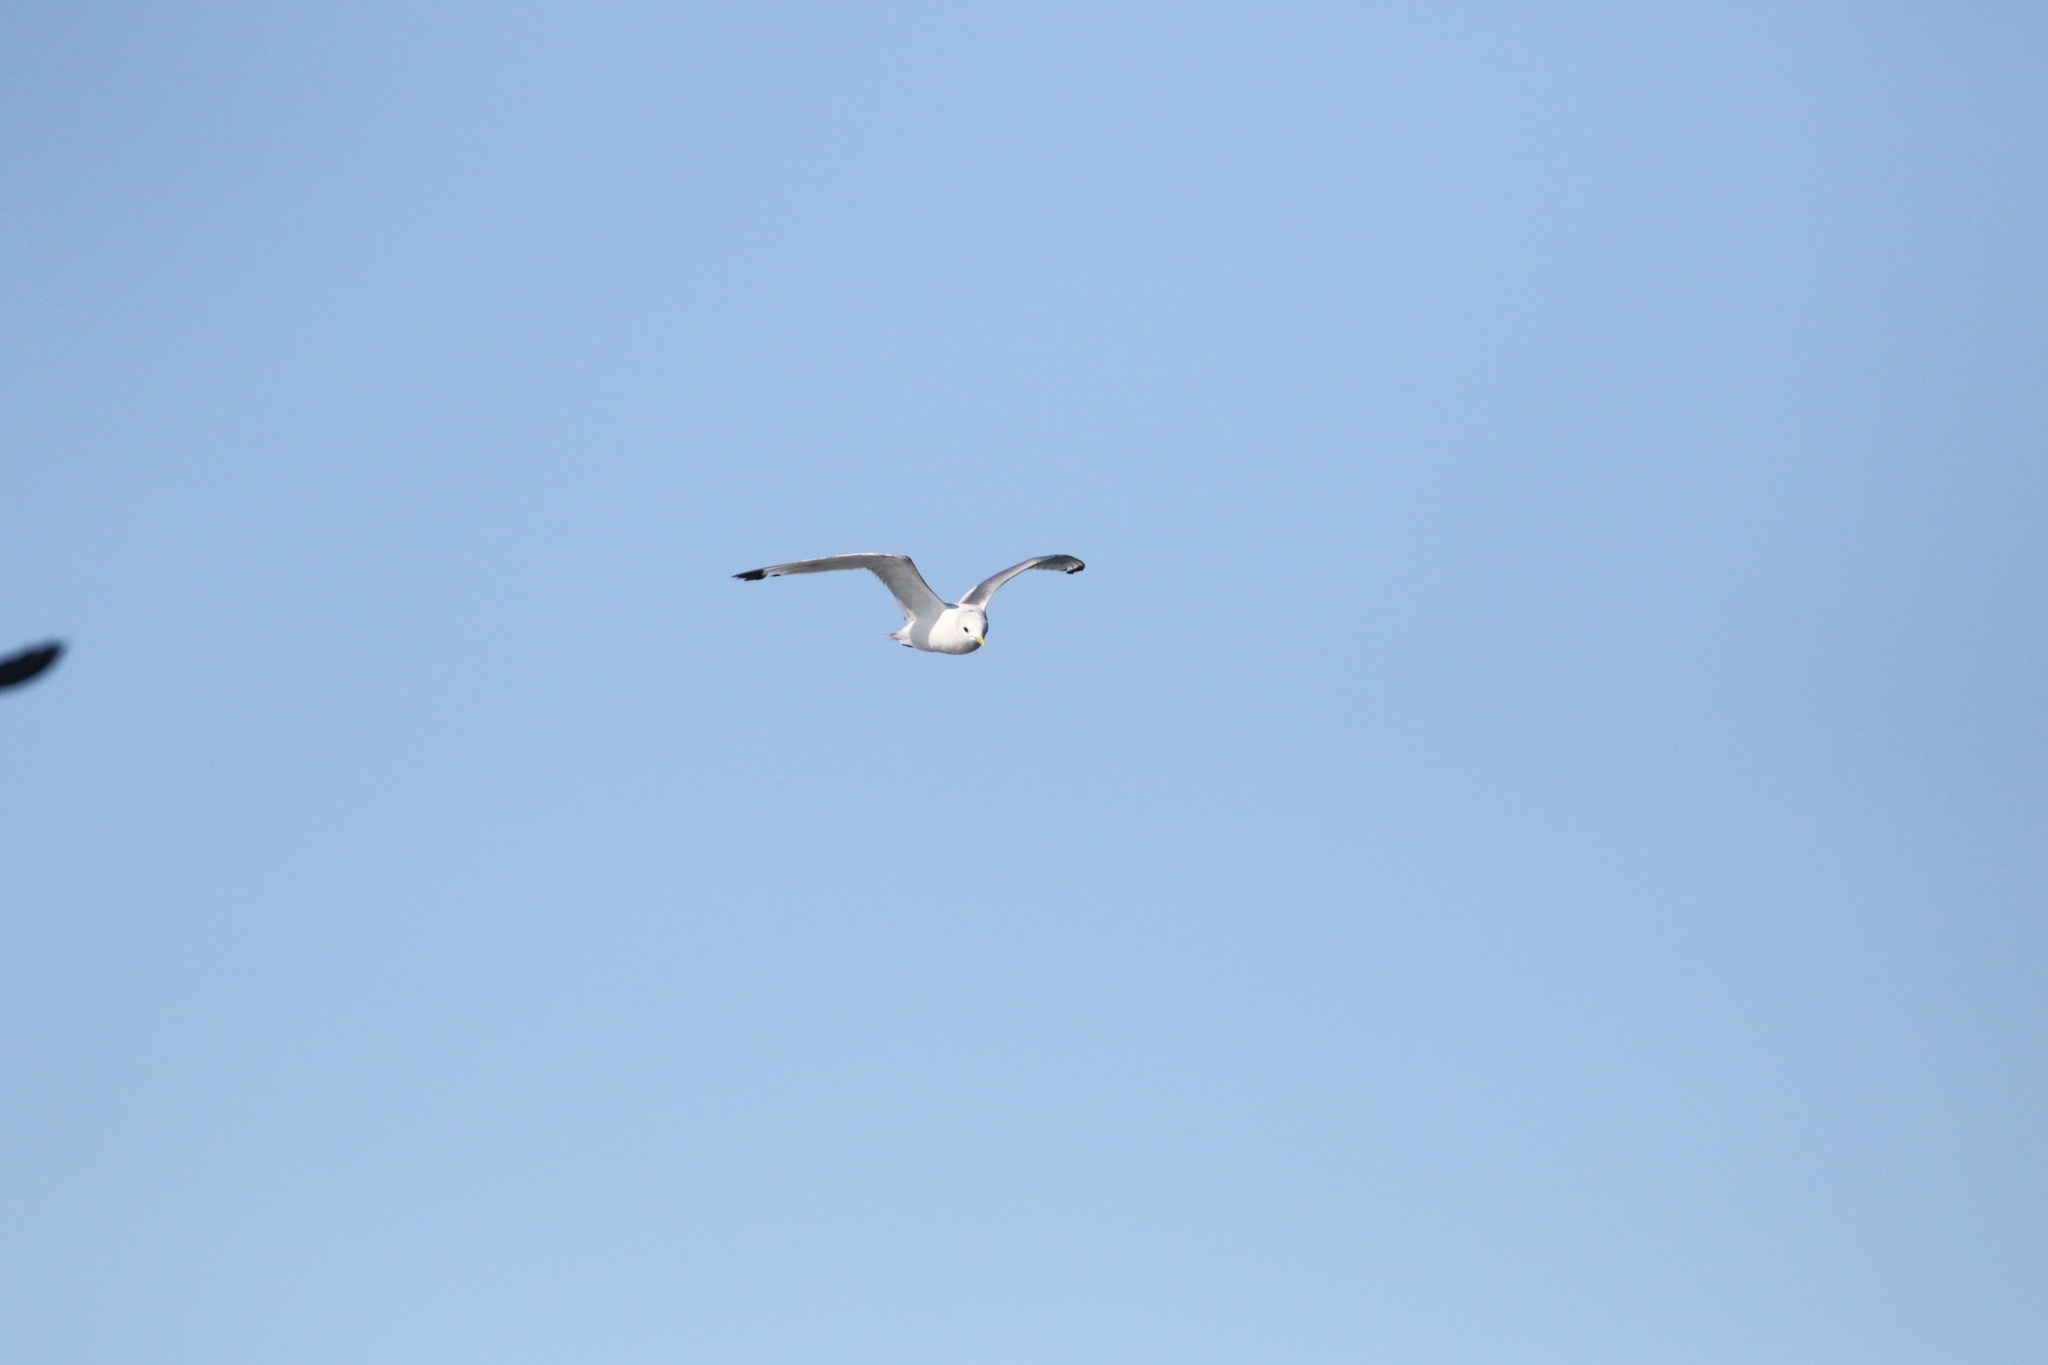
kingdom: Animalia
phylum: Chordata
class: Aves
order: Charadriiformes
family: Laridae
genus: Rissa
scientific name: Rissa tridactyla
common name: Black-legged kittiwake
